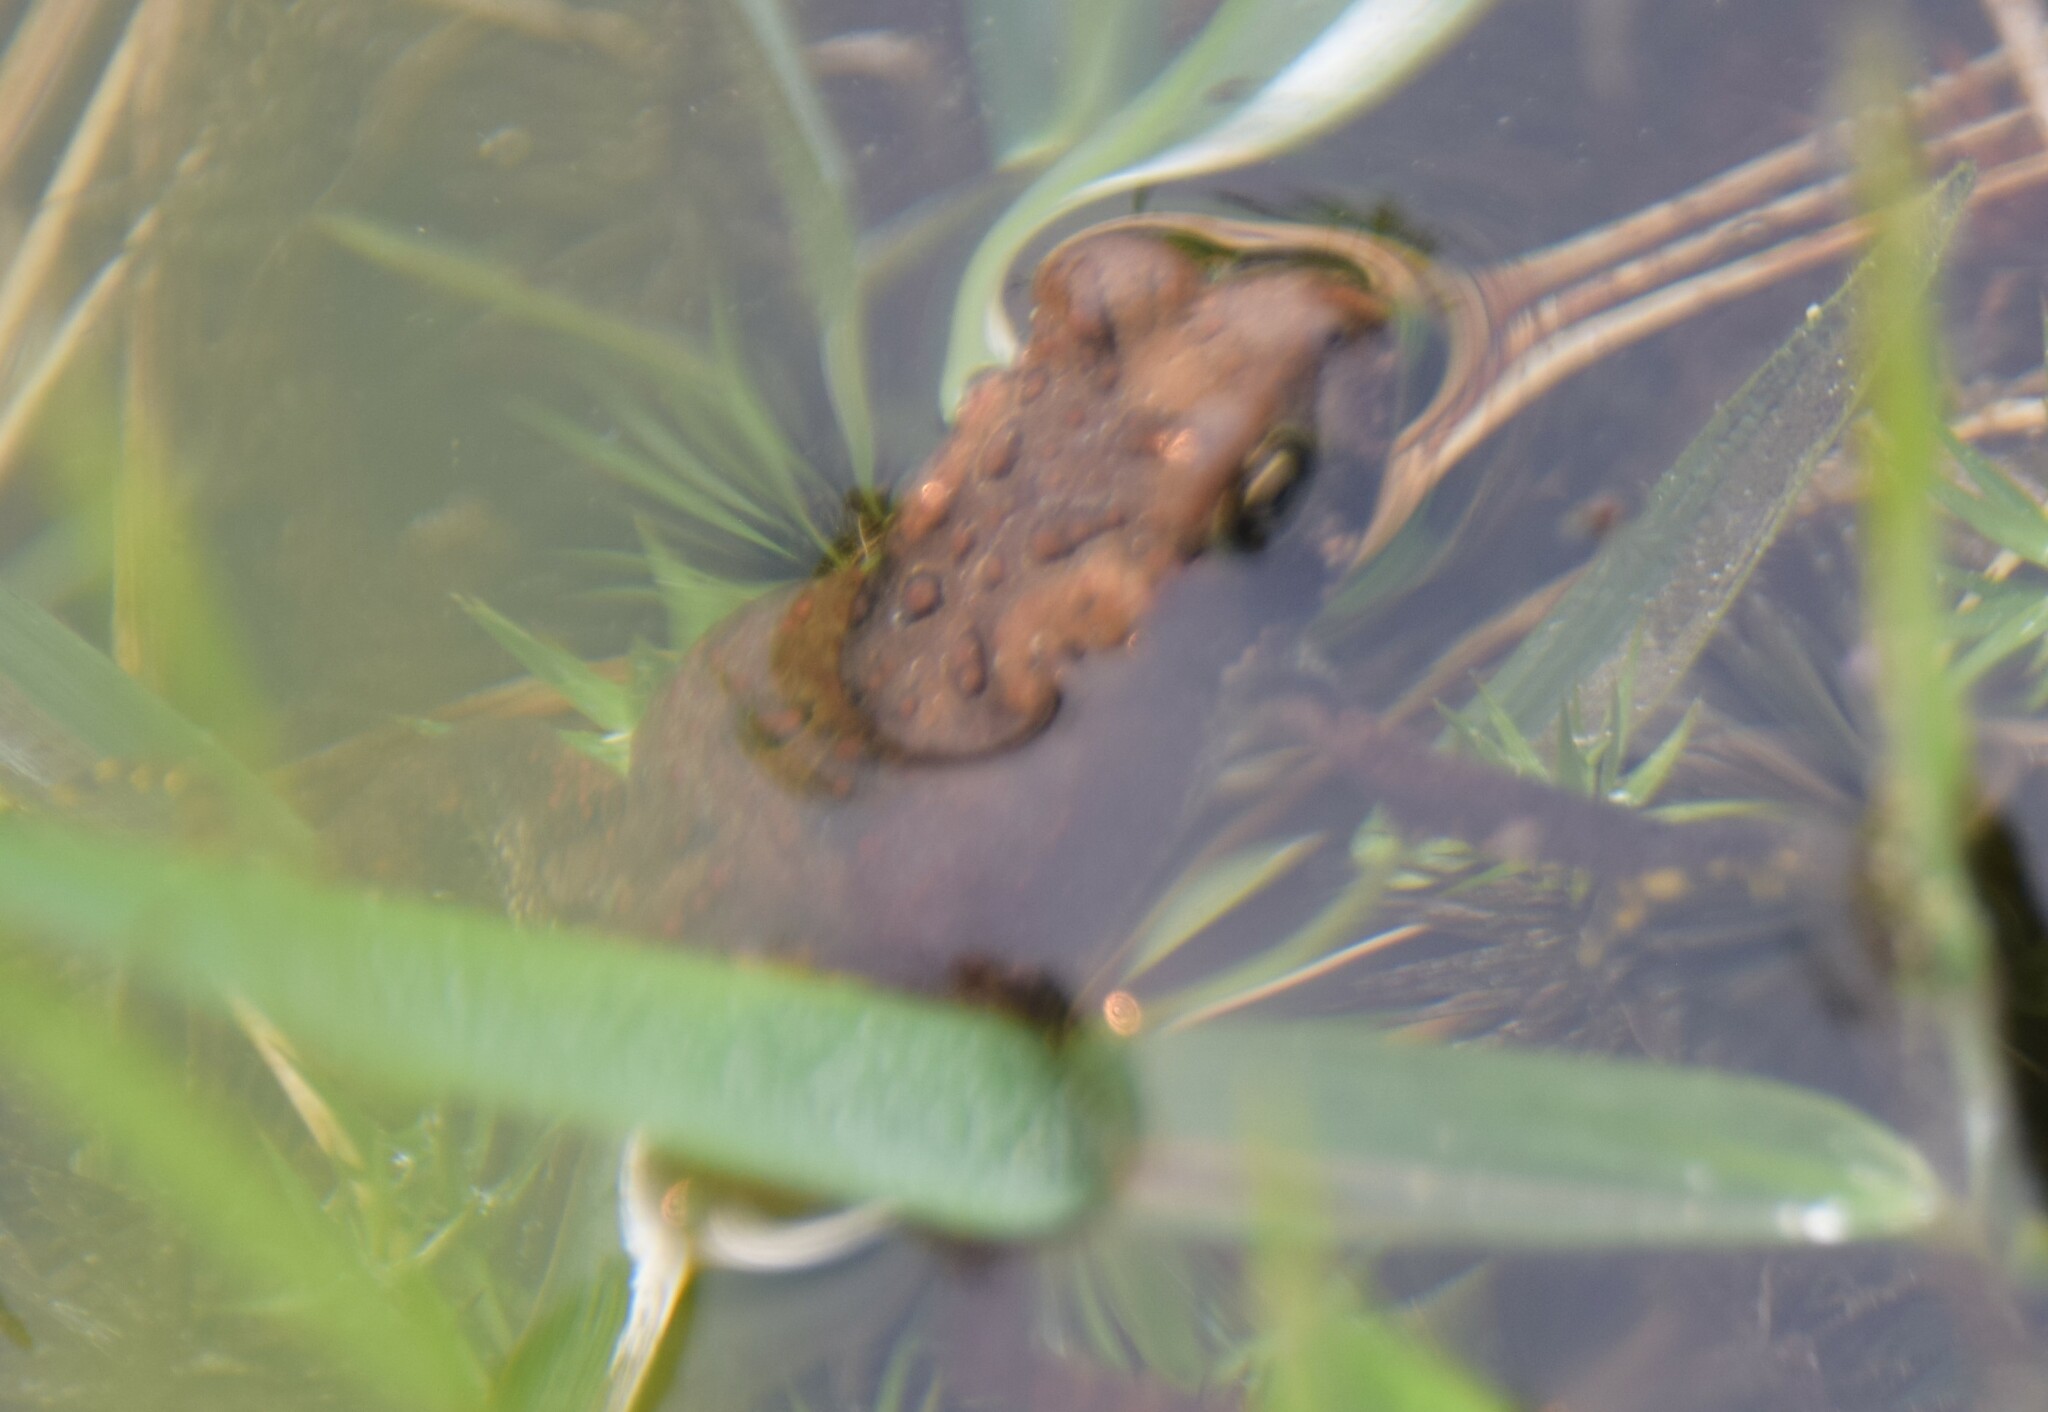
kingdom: Animalia
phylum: Chordata
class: Amphibia
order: Anura
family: Bufonidae
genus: Anaxyrus
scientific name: Anaxyrus americanus
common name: American toad
